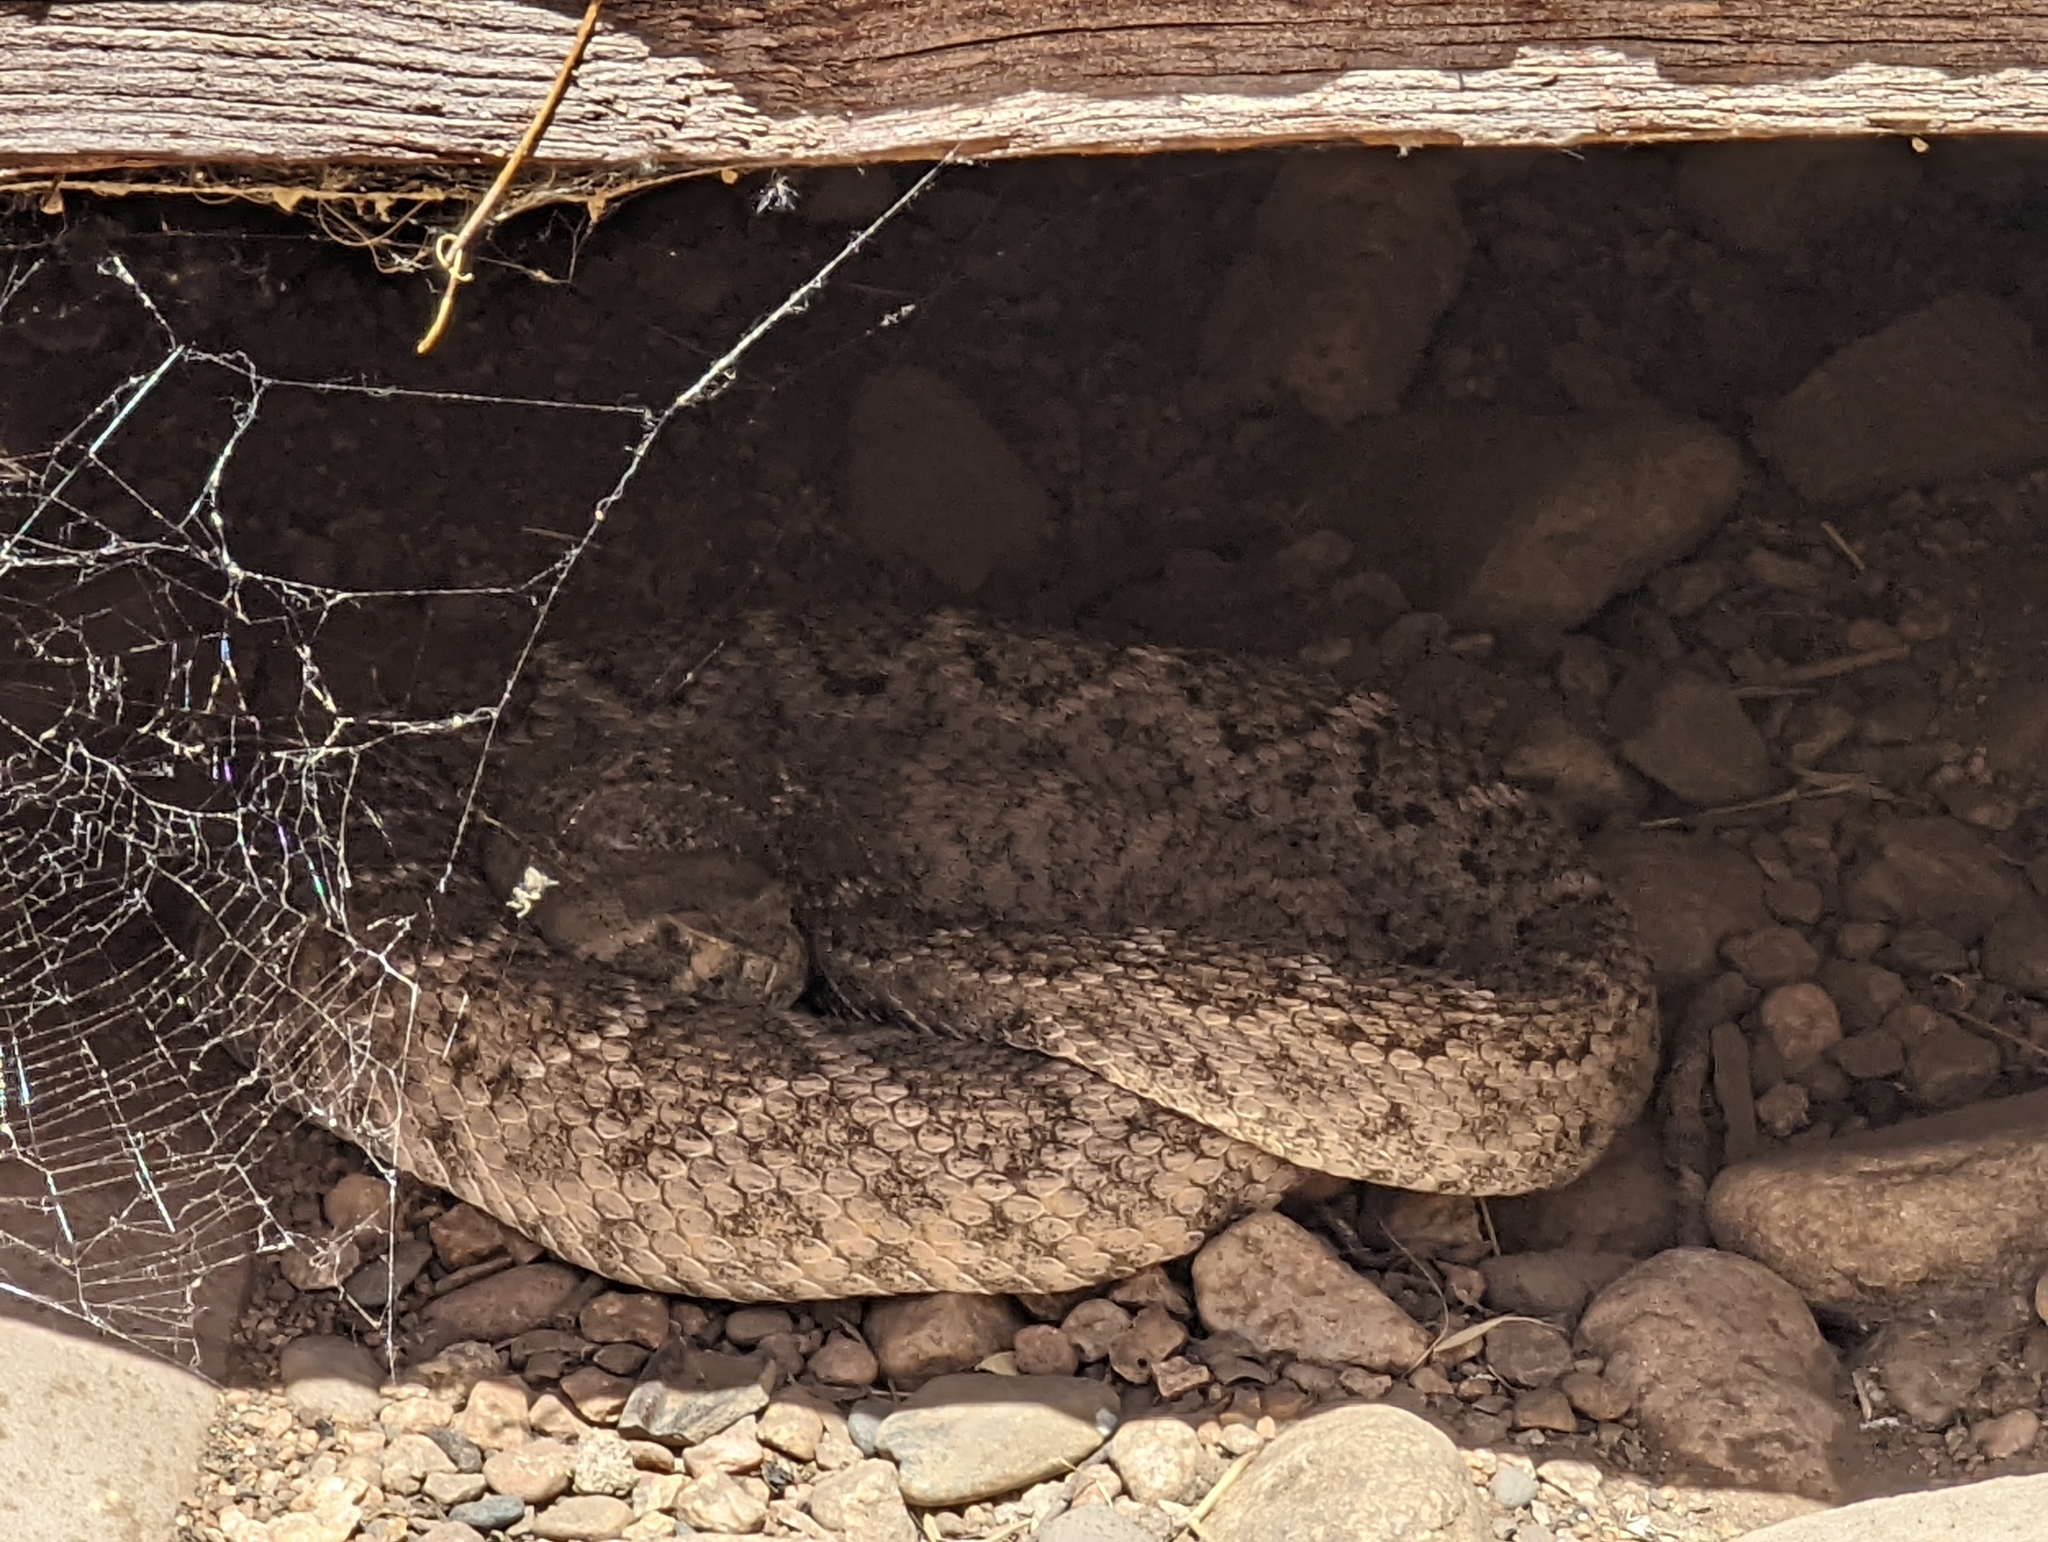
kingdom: Animalia
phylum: Chordata
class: Squamata
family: Viperidae
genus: Crotalus
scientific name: Crotalus atrox
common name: Western diamond-backed rattlesnake
